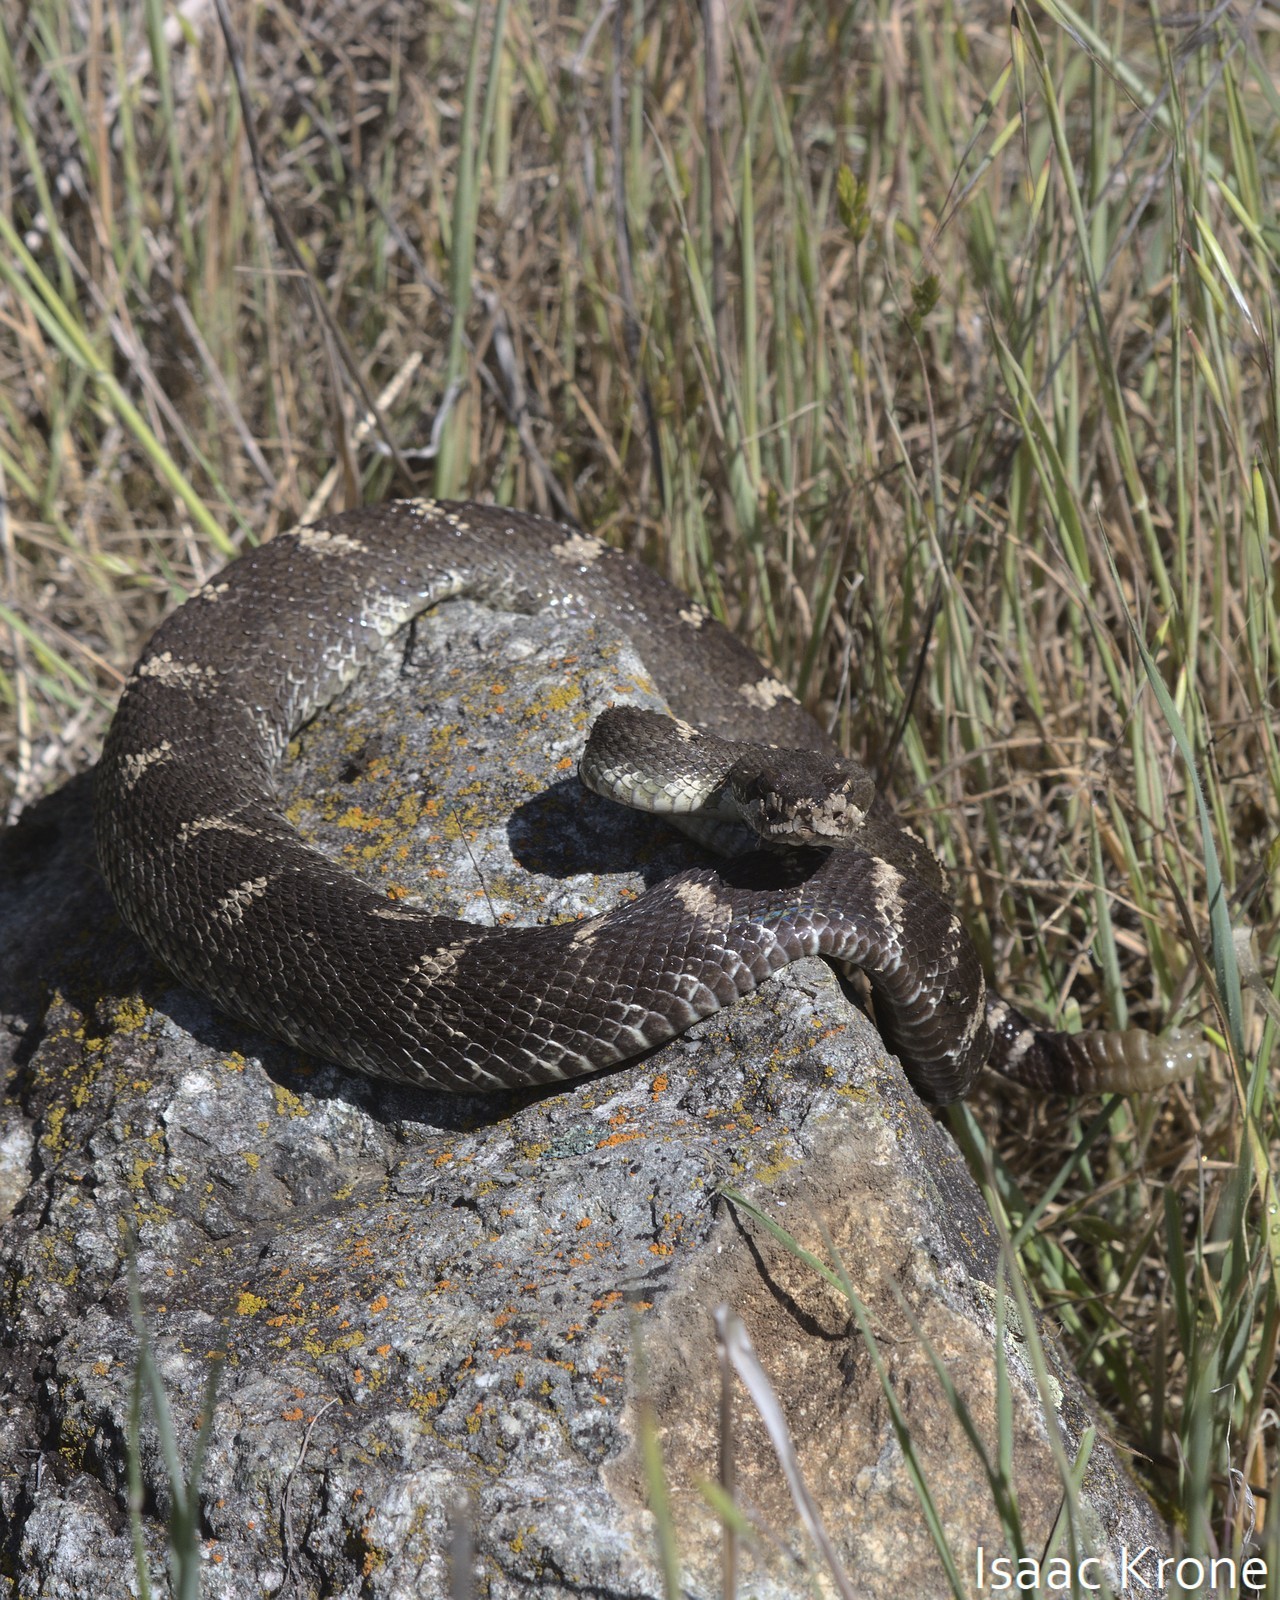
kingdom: Animalia
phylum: Chordata
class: Squamata
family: Viperidae
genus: Crotalus
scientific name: Crotalus oreganus
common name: Abyssus
